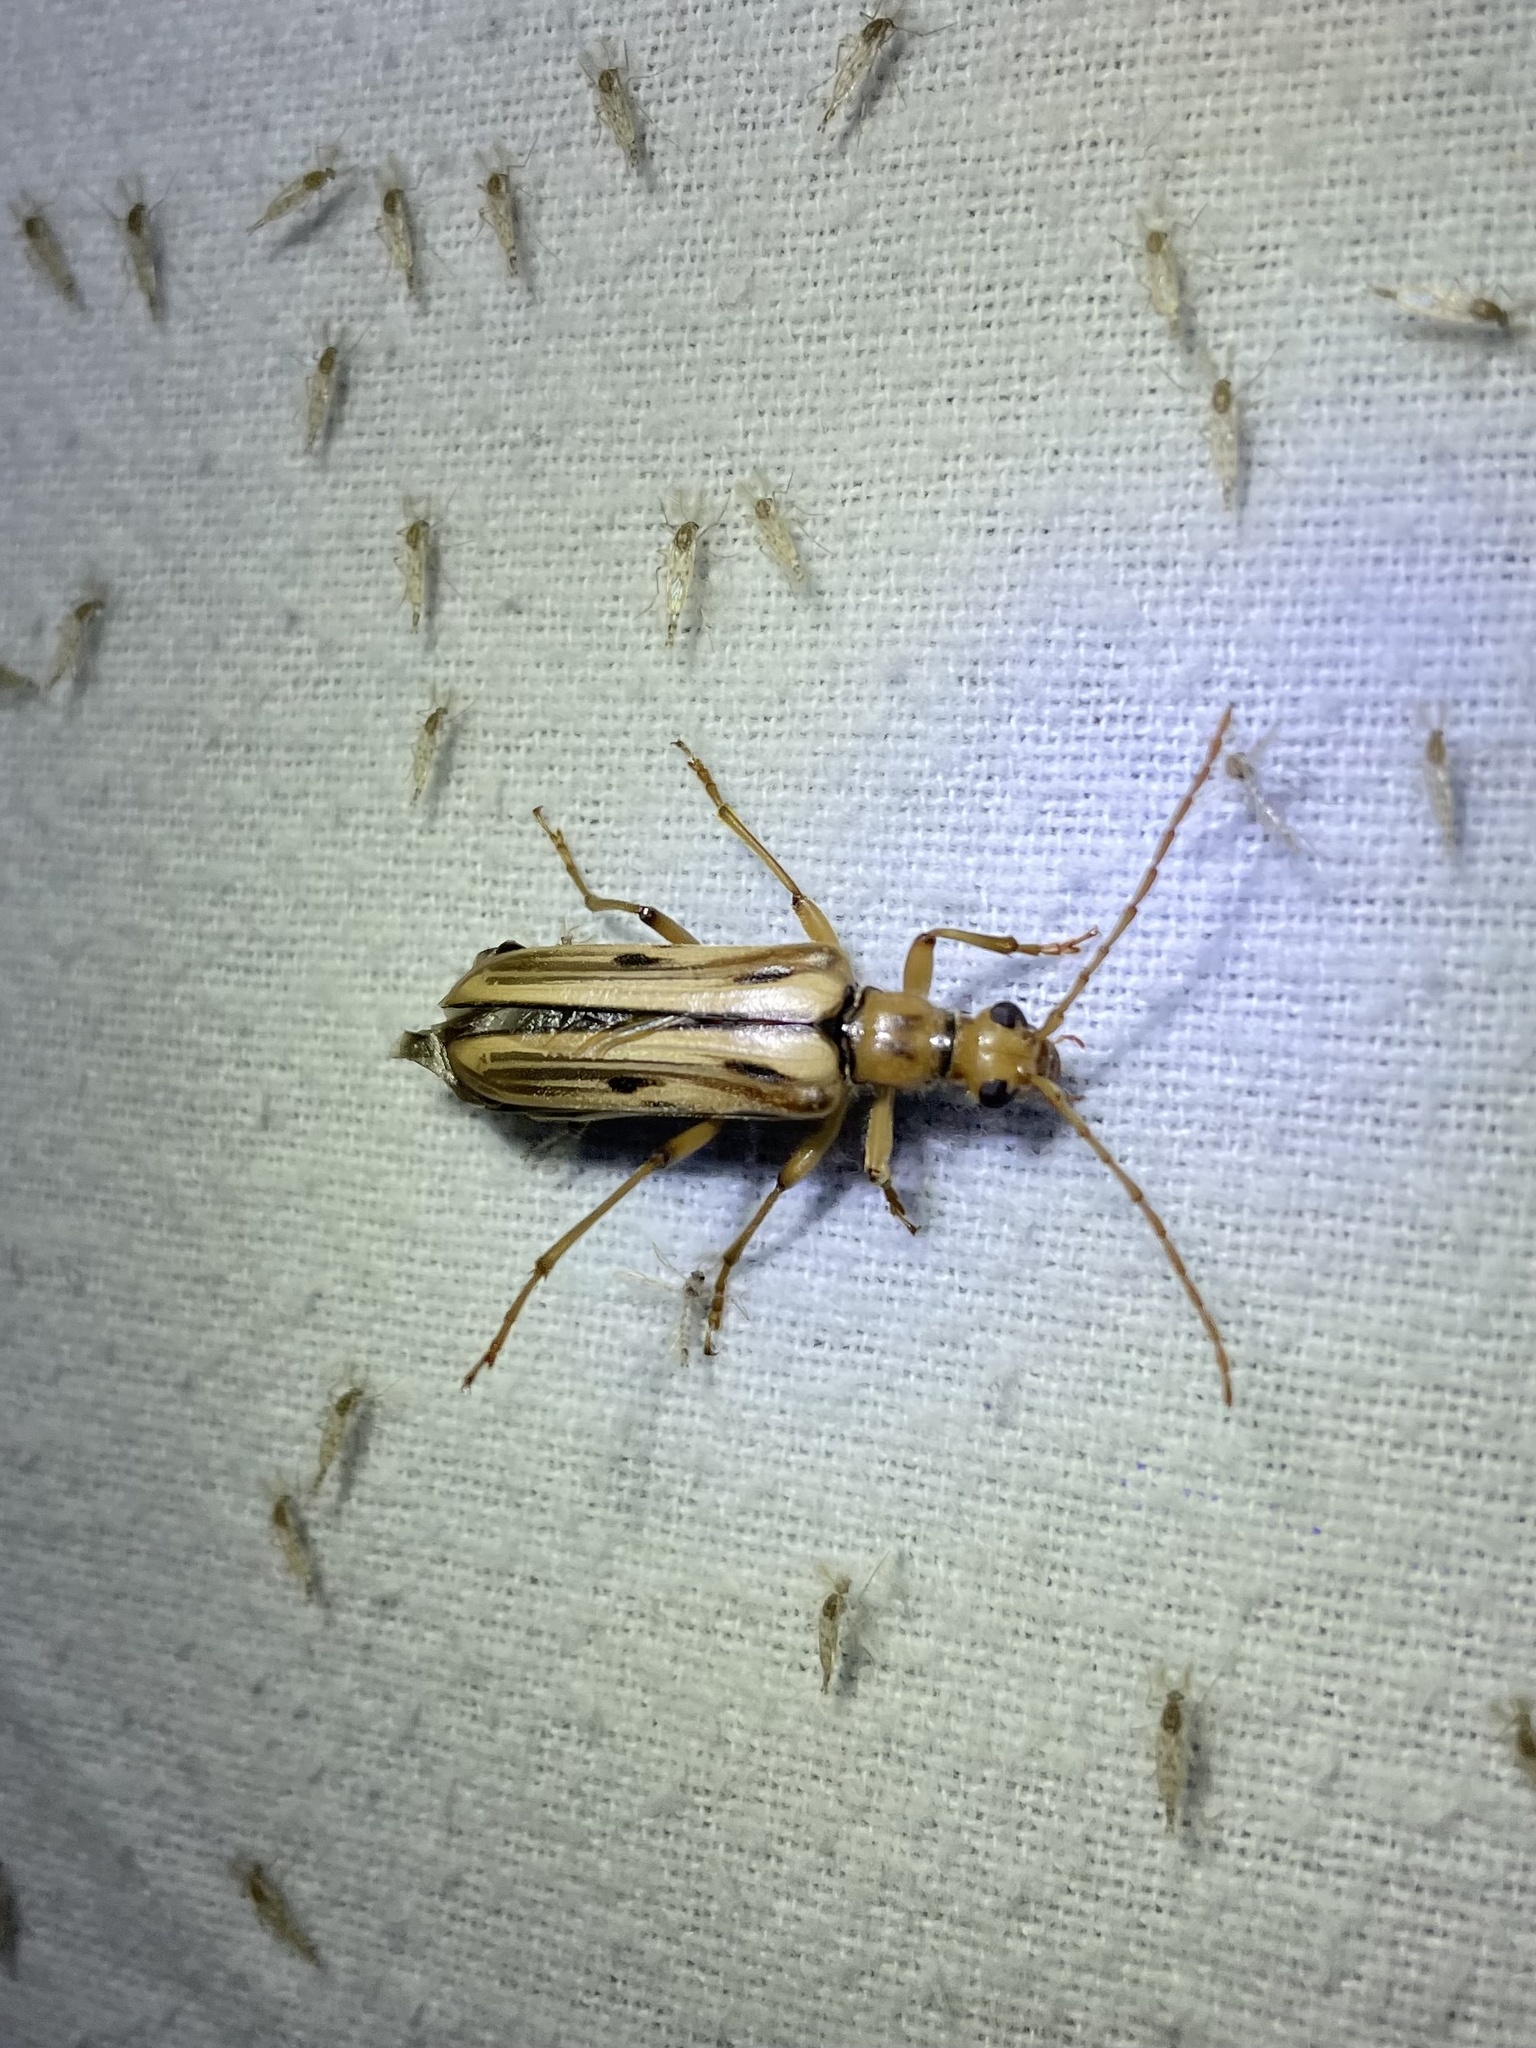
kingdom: Animalia
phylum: Arthropoda
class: Insecta
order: Coleoptera
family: Cerambycidae
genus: Ortholeptura
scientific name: Ortholeptura valida
